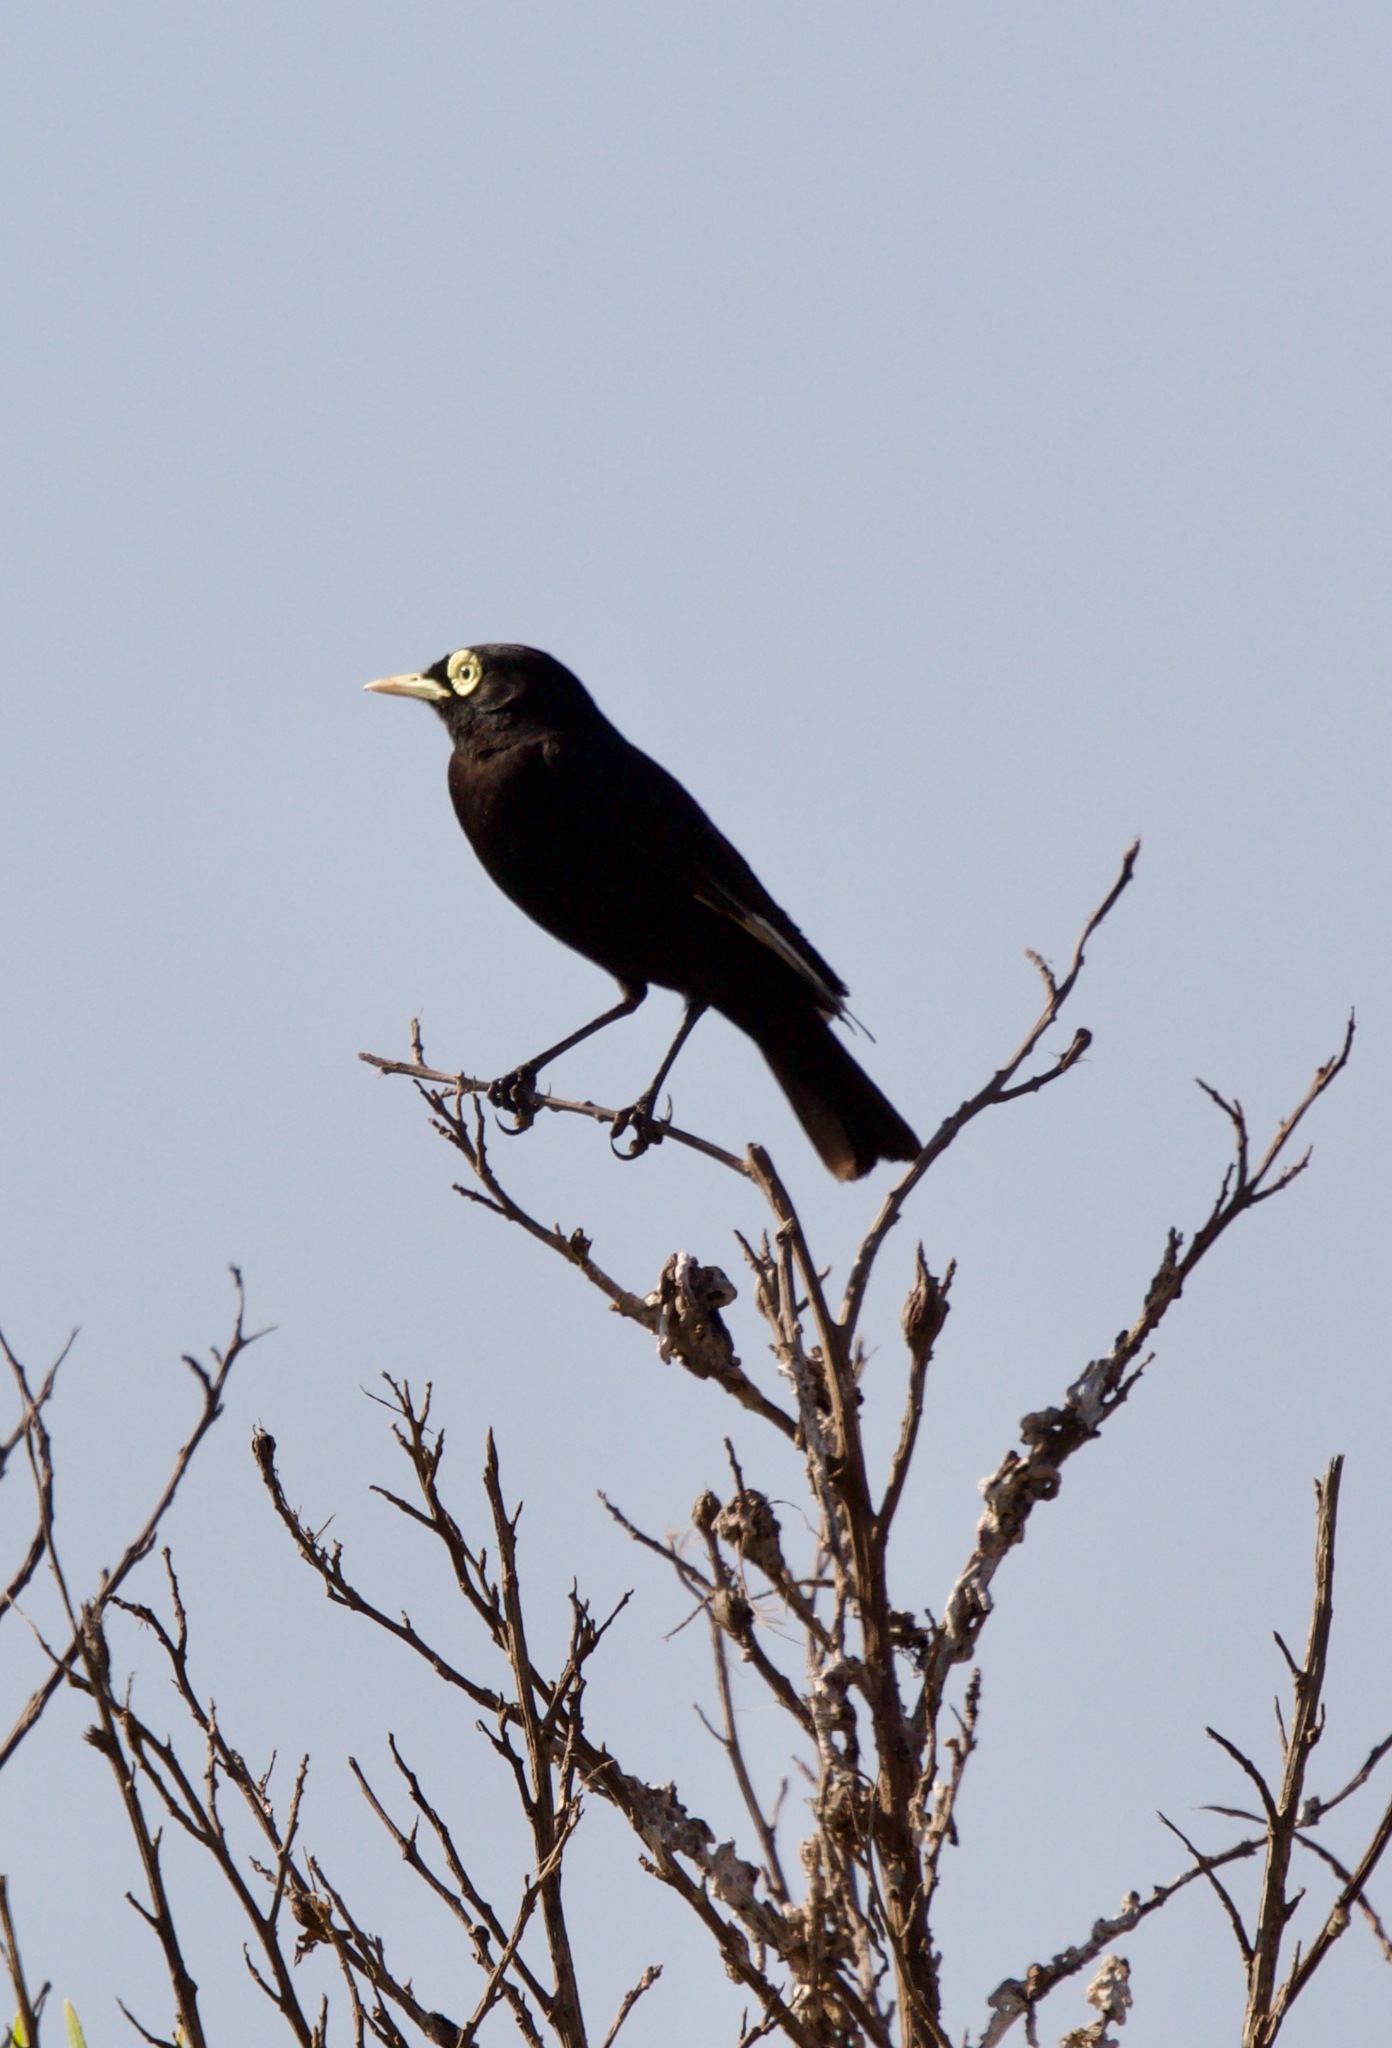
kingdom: Animalia
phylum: Chordata
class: Aves
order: Passeriformes
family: Tyrannidae
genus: Hymenops
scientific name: Hymenops perspicillatus
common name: Spectacled tyrant
